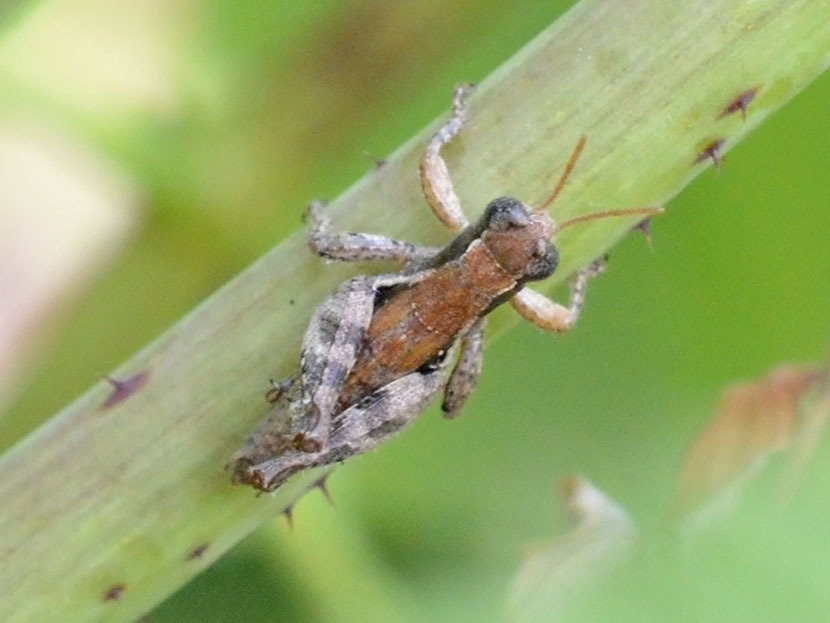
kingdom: Animalia
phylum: Arthropoda
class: Insecta
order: Orthoptera
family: Acrididae
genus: Pezotettix
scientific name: Pezotettix giornae
